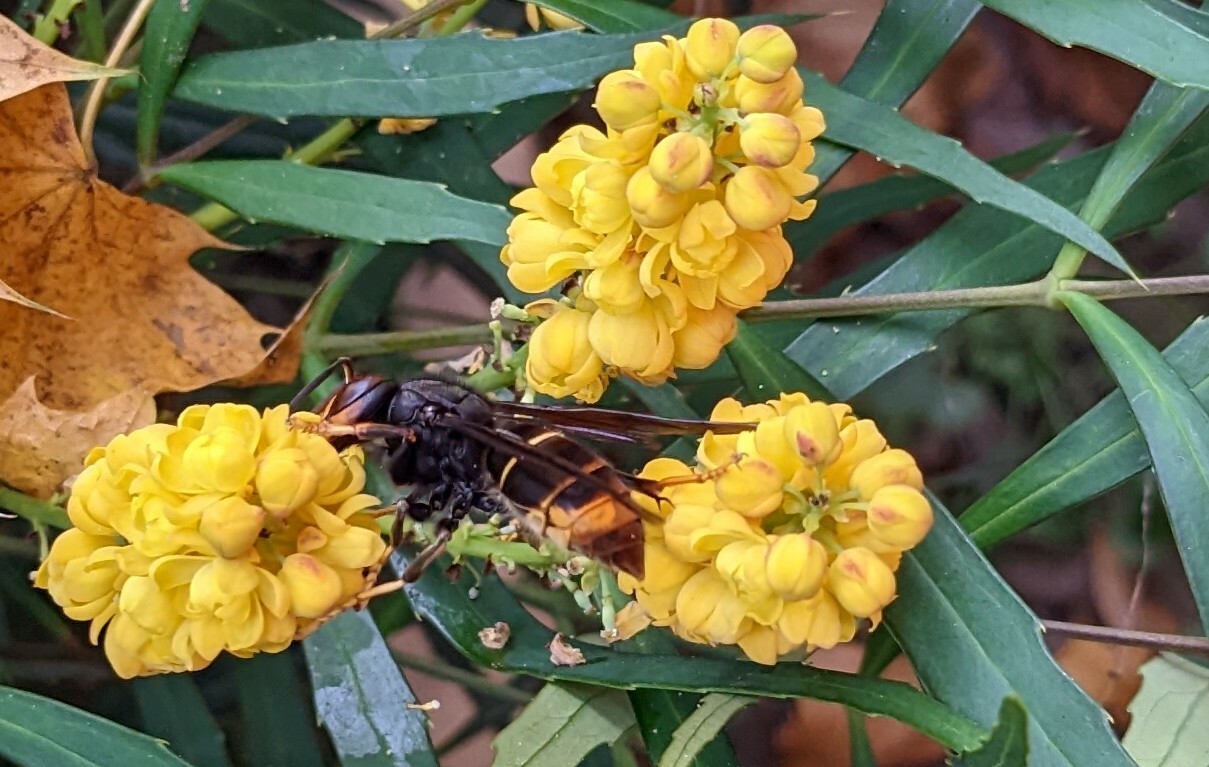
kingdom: Animalia
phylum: Arthropoda
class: Insecta
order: Hymenoptera
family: Vespidae
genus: Vespa
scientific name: Vespa velutina
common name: Asian hornet
